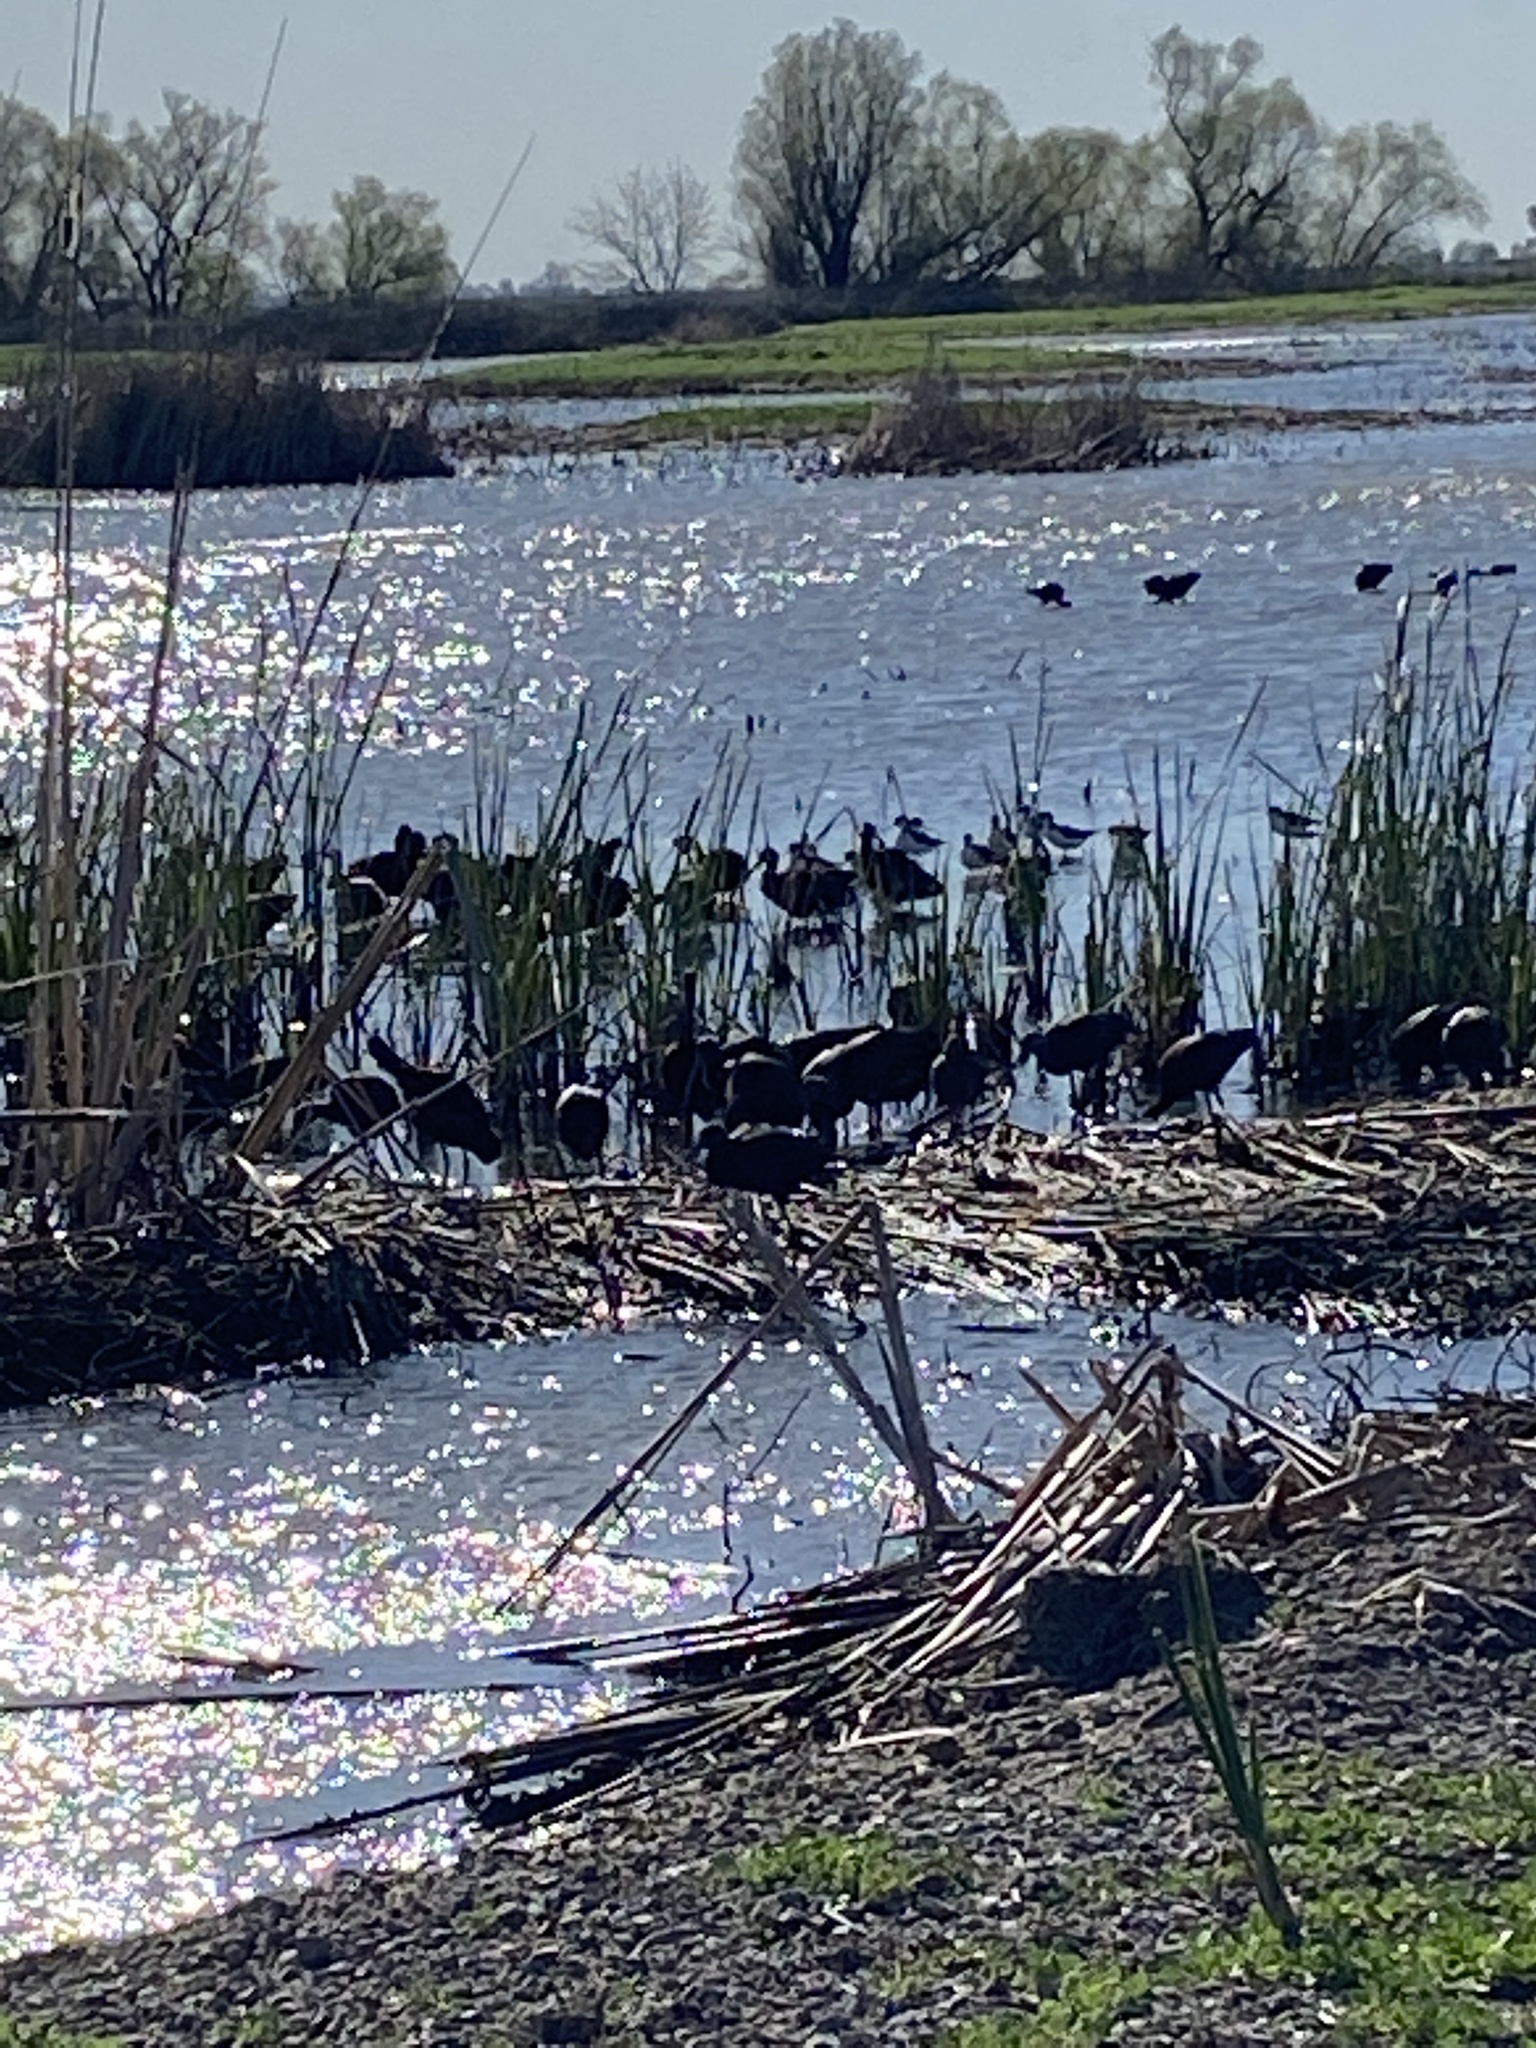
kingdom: Animalia
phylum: Chordata
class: Aves
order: Pelecaniformes
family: Threskiornithidae
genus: Plegadis
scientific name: Plegadis chihi
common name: White-faced ibis
